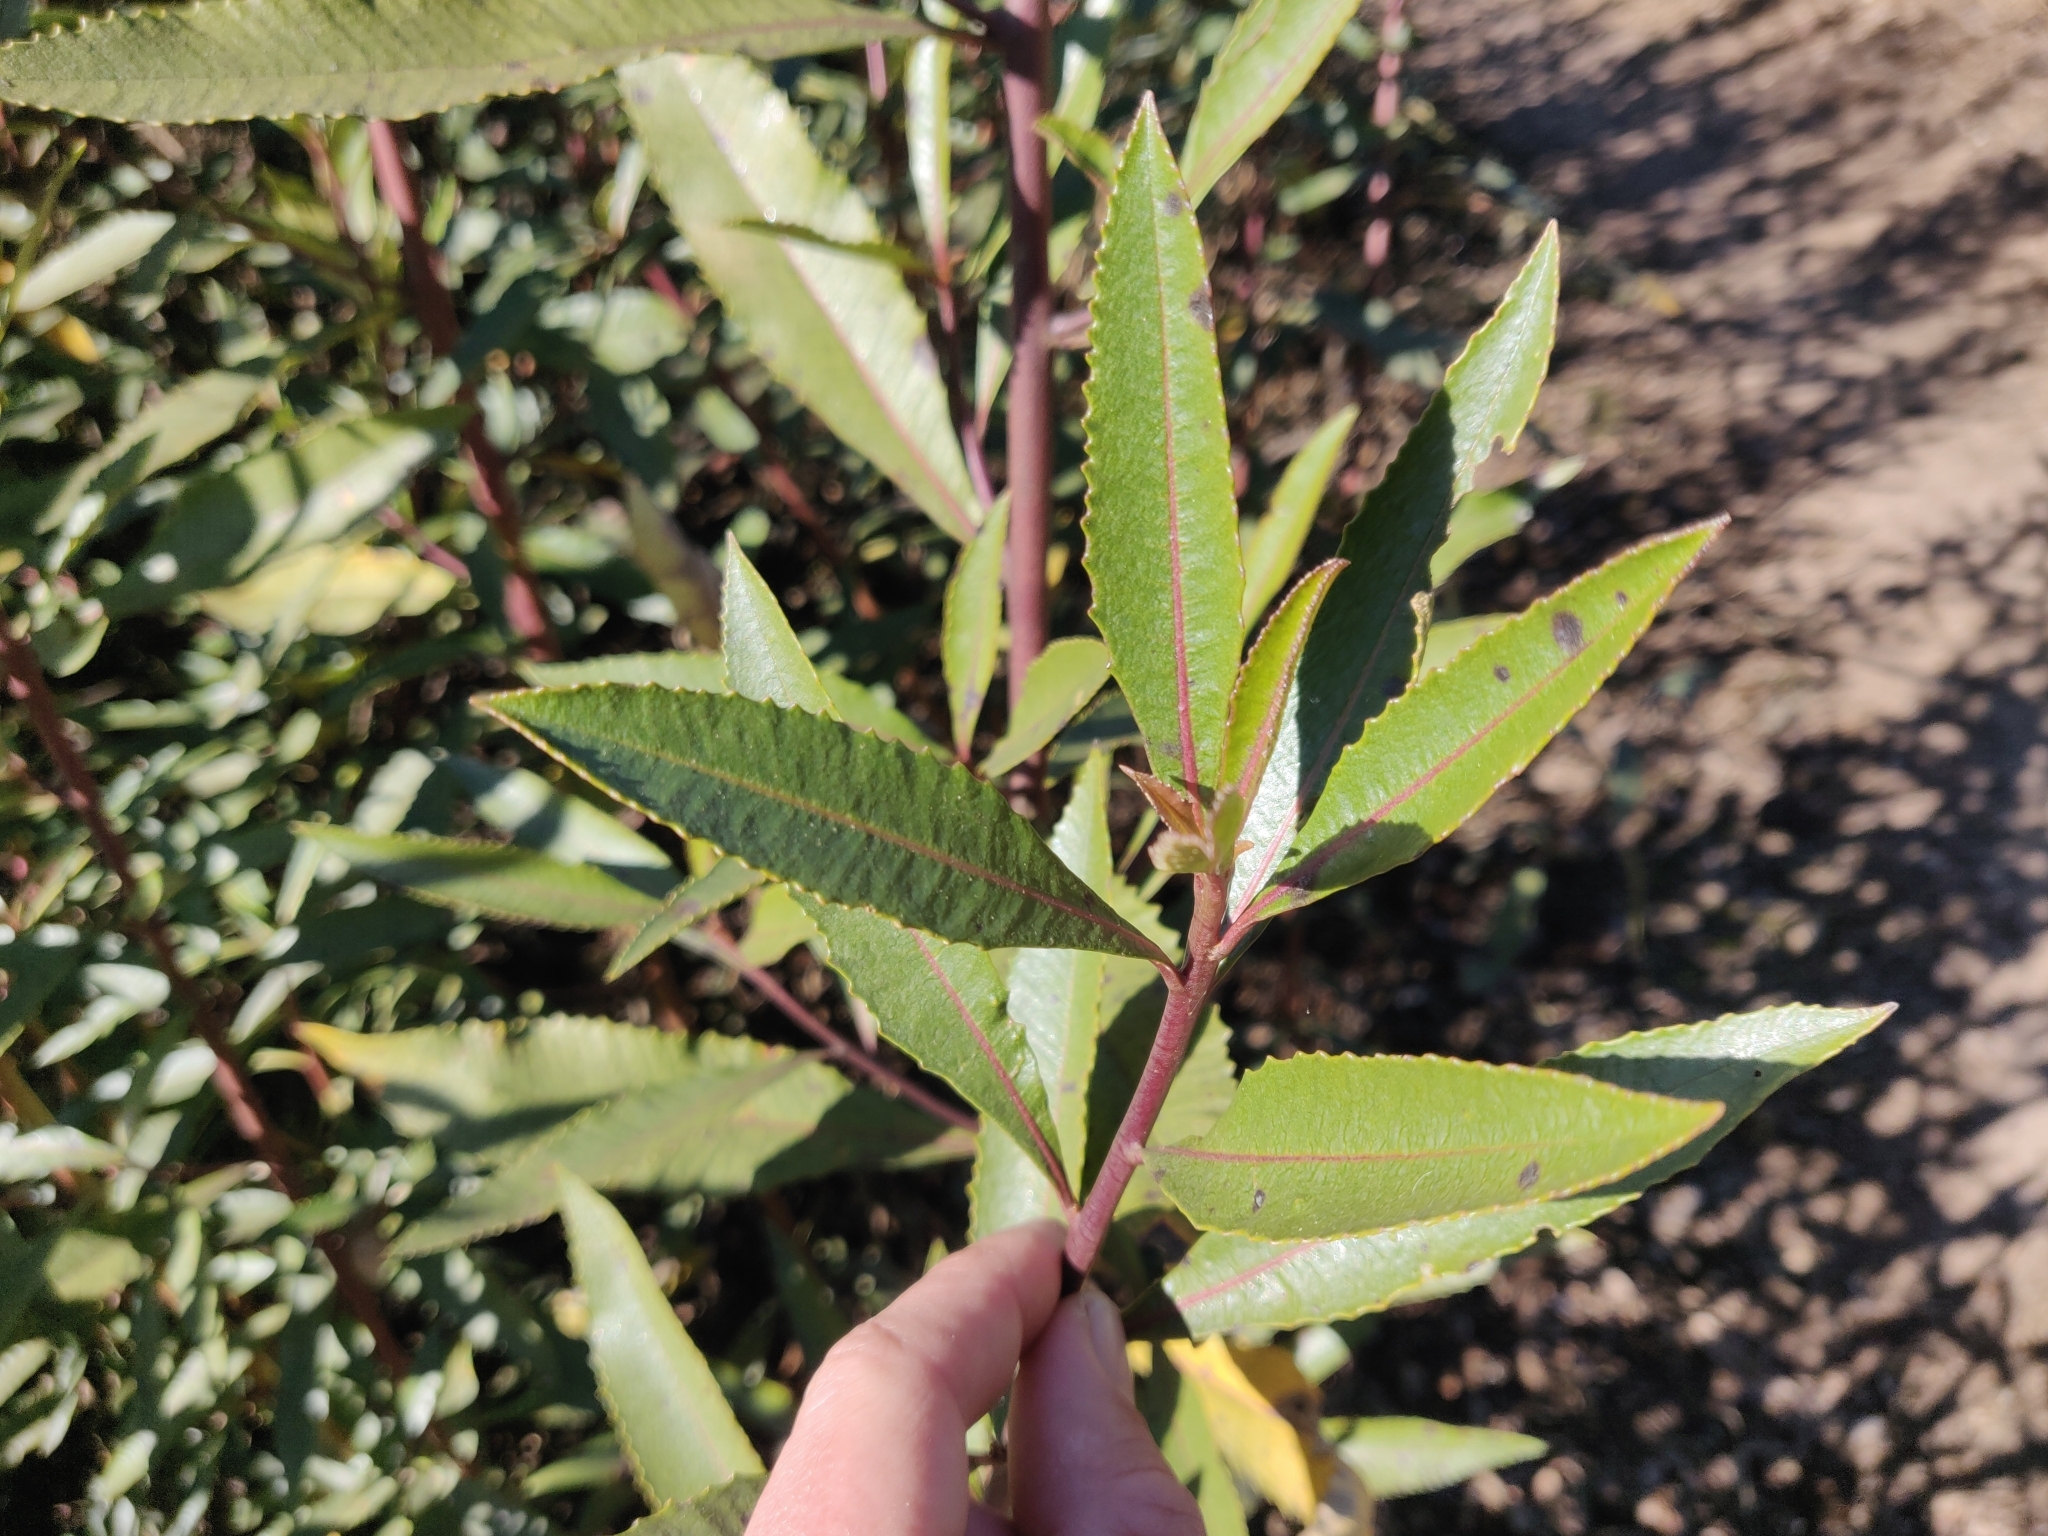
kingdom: Plantae
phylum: Tracheophyta
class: Magnoliopsida
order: Boraginales
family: Namaceae
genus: Eriodictyon
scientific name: Eriodictyon californicum
